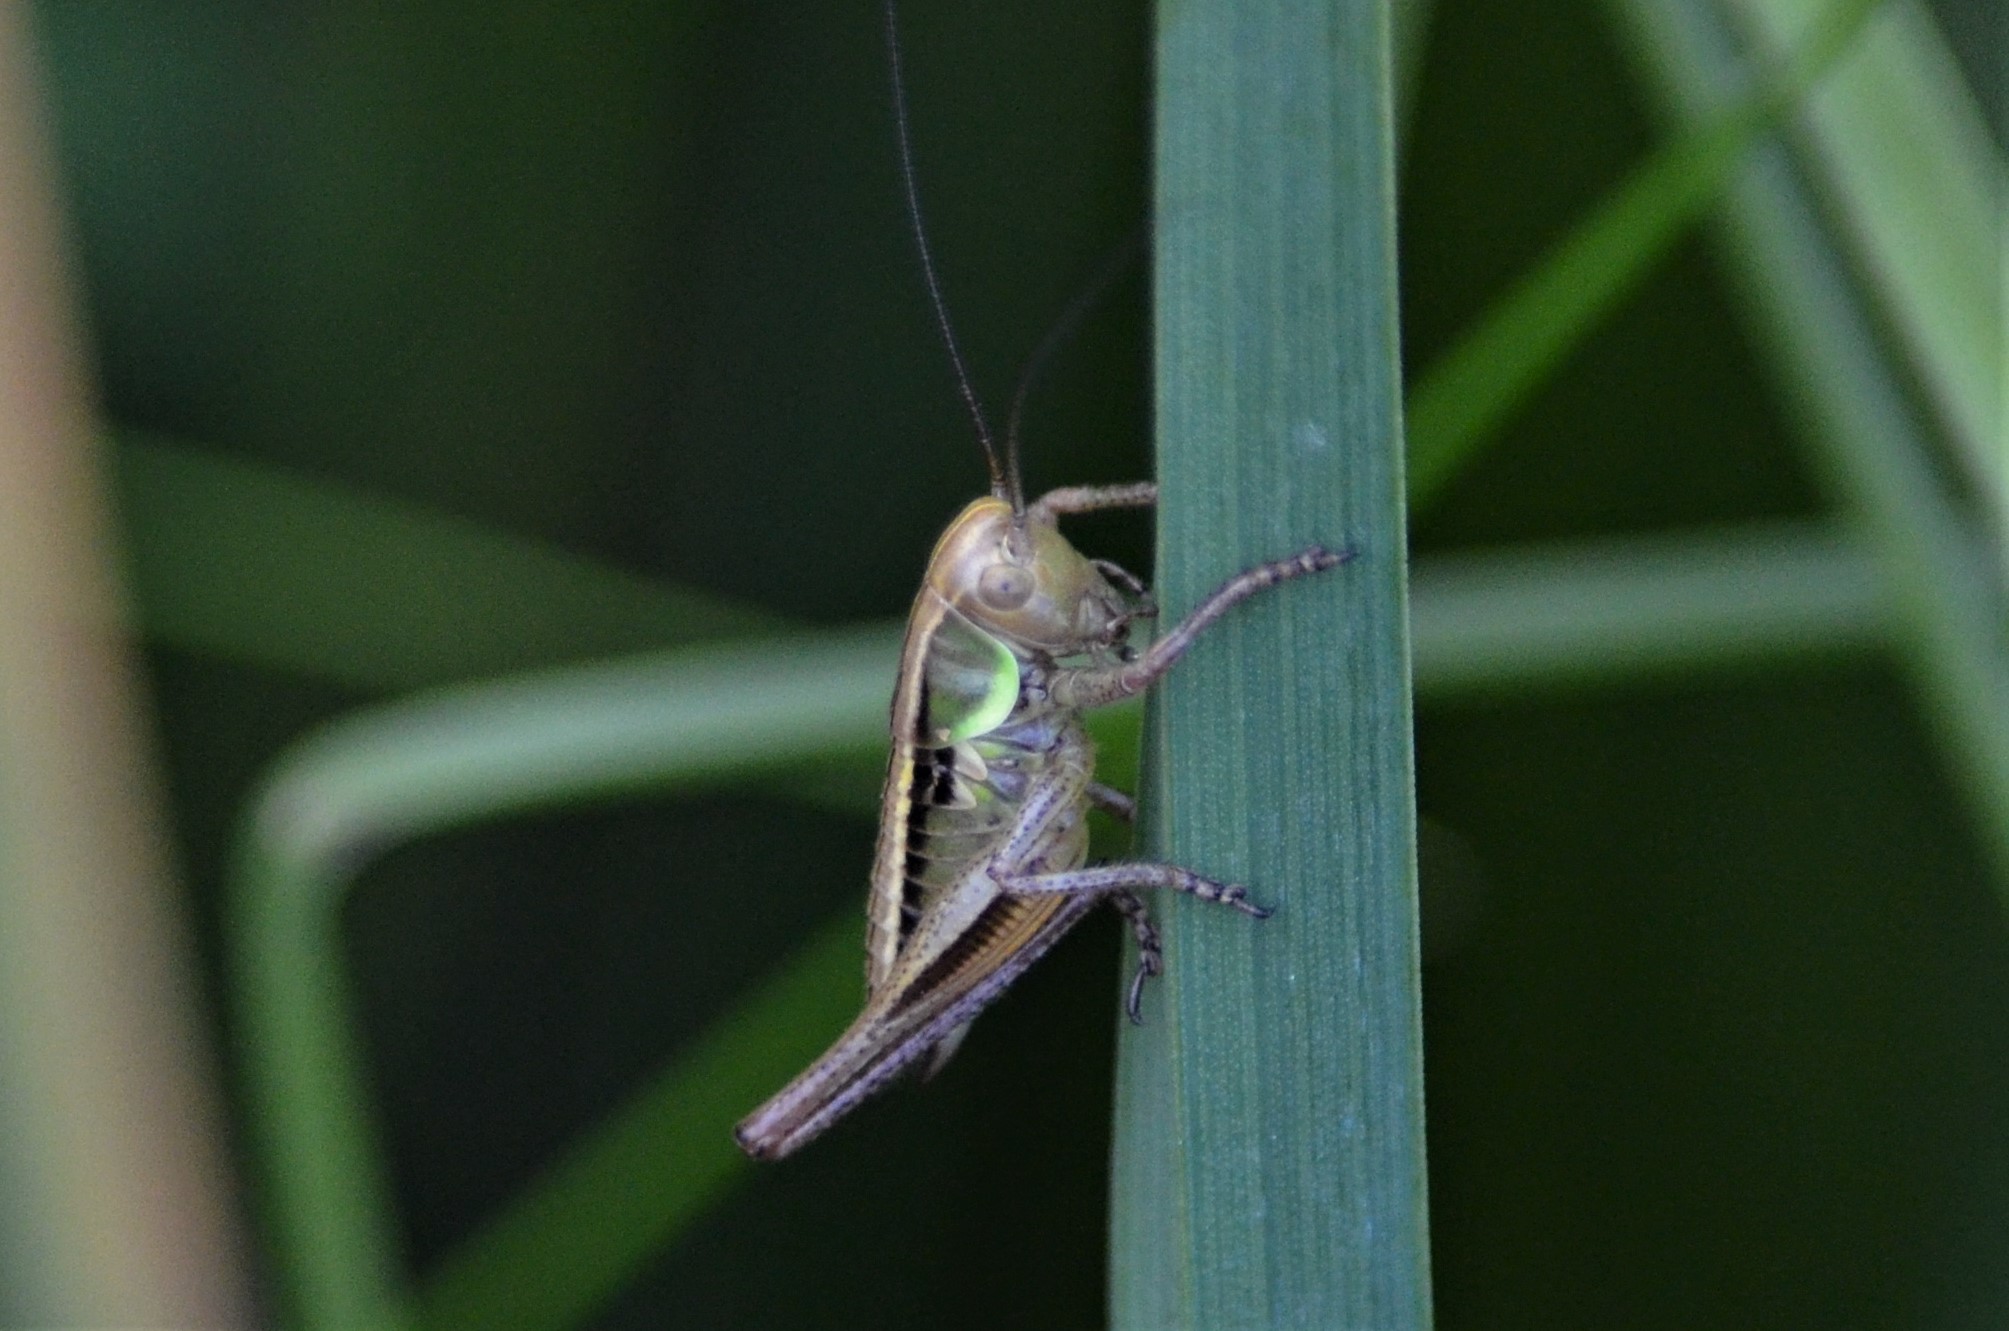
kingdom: Animalia
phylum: Arthropoda
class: Insecta
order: Orthoptera
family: Tettigoniidae
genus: Roeseliana
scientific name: Roeseliana roeselii
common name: Roesel's bush cricket
